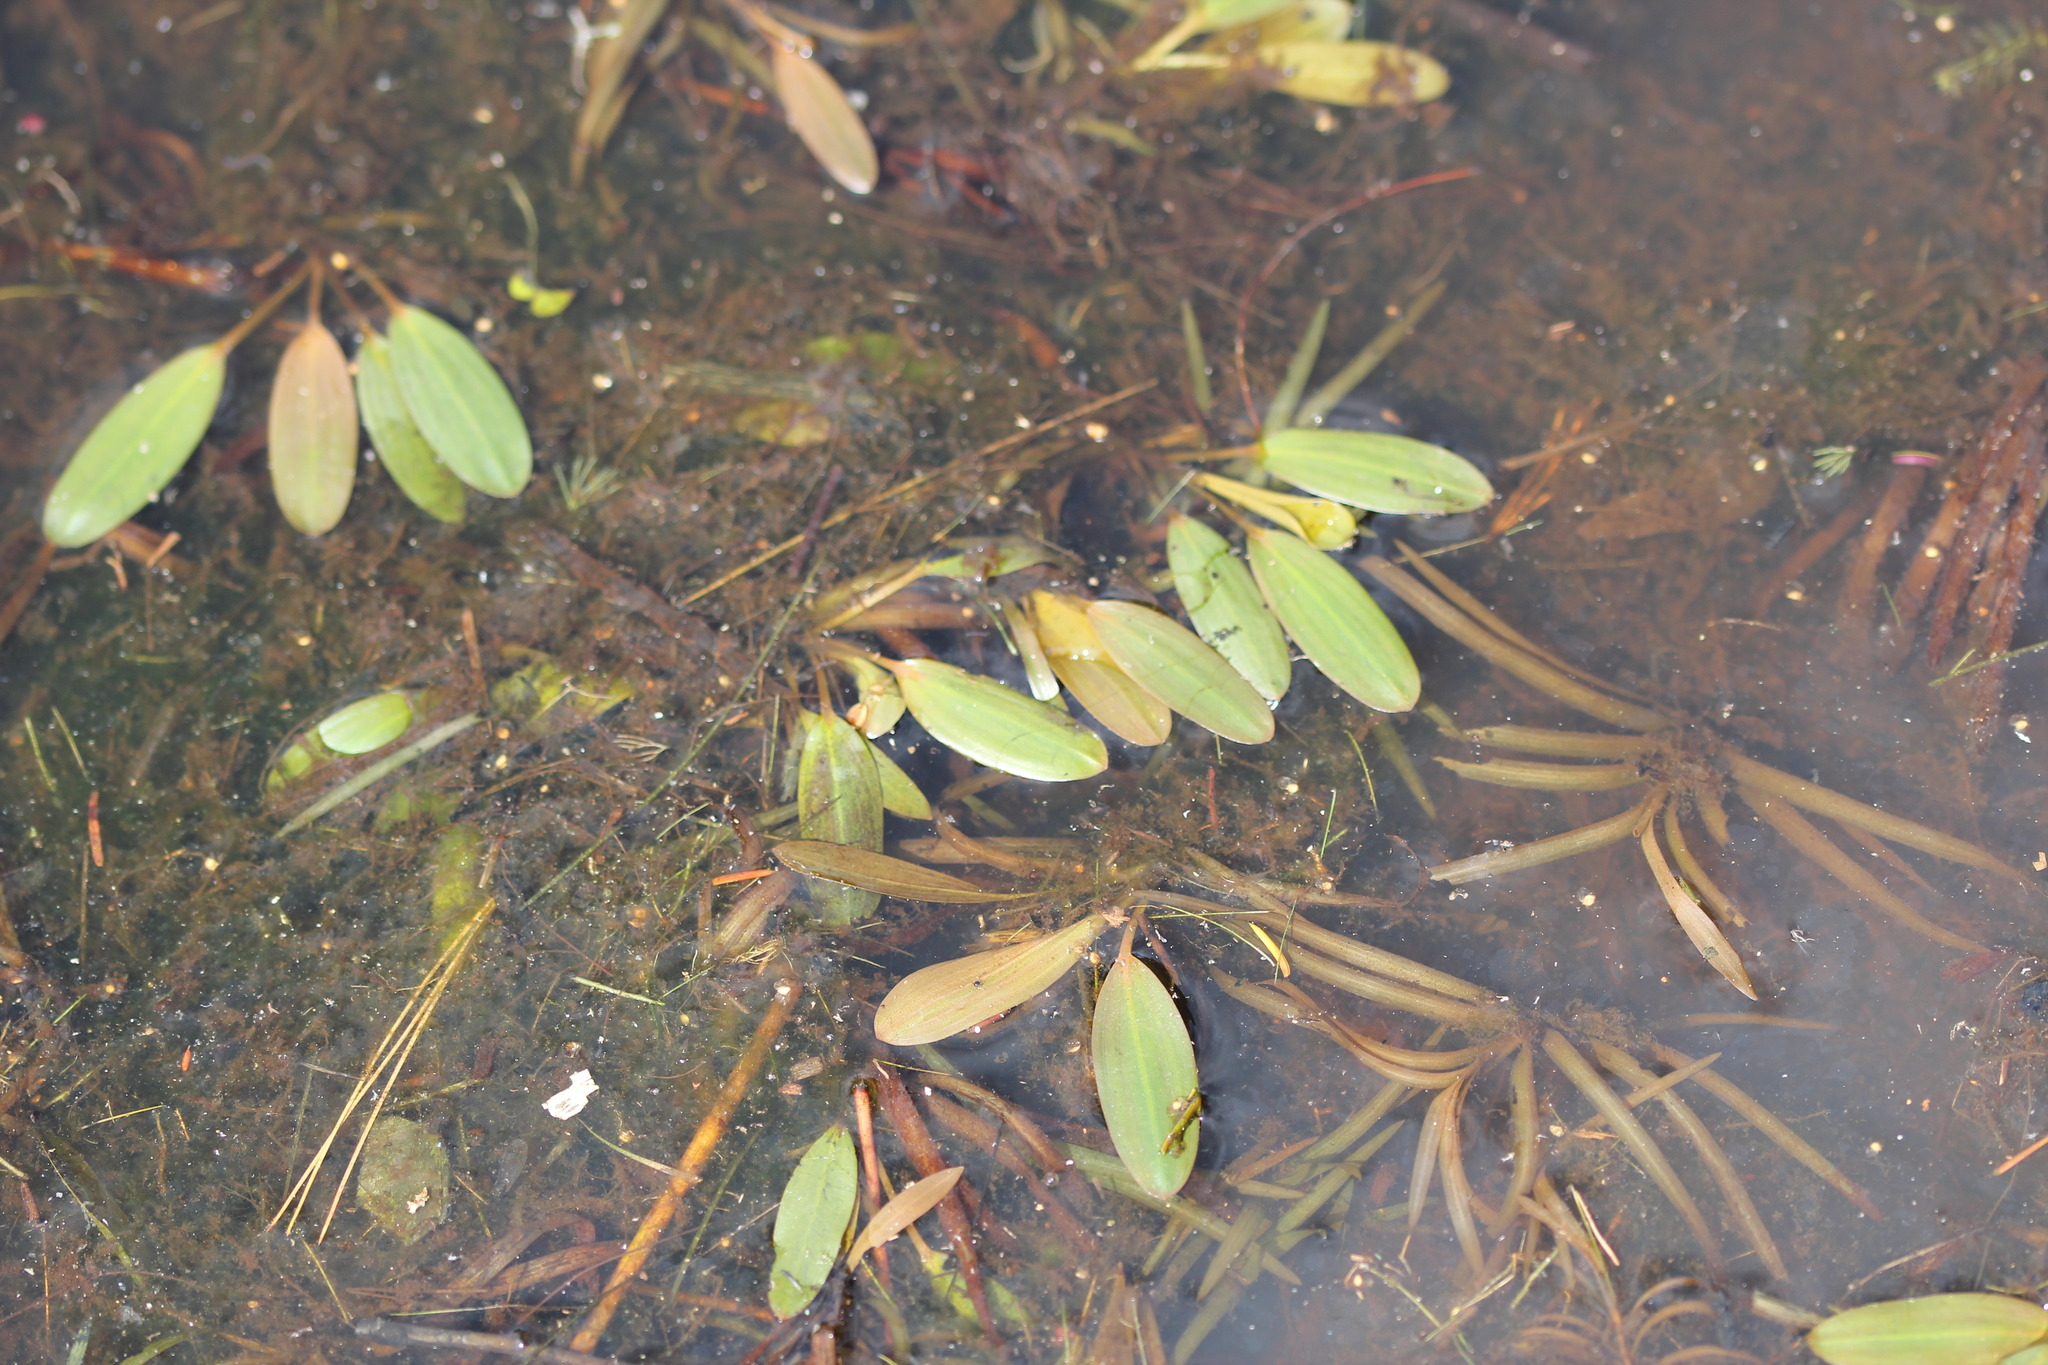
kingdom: Plantae
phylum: Tracheophyta
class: Liliopsida
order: Alismatales
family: Potamogetonaceae
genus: Potamogeton
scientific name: Potamogeton epihydrus
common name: American pondweed
